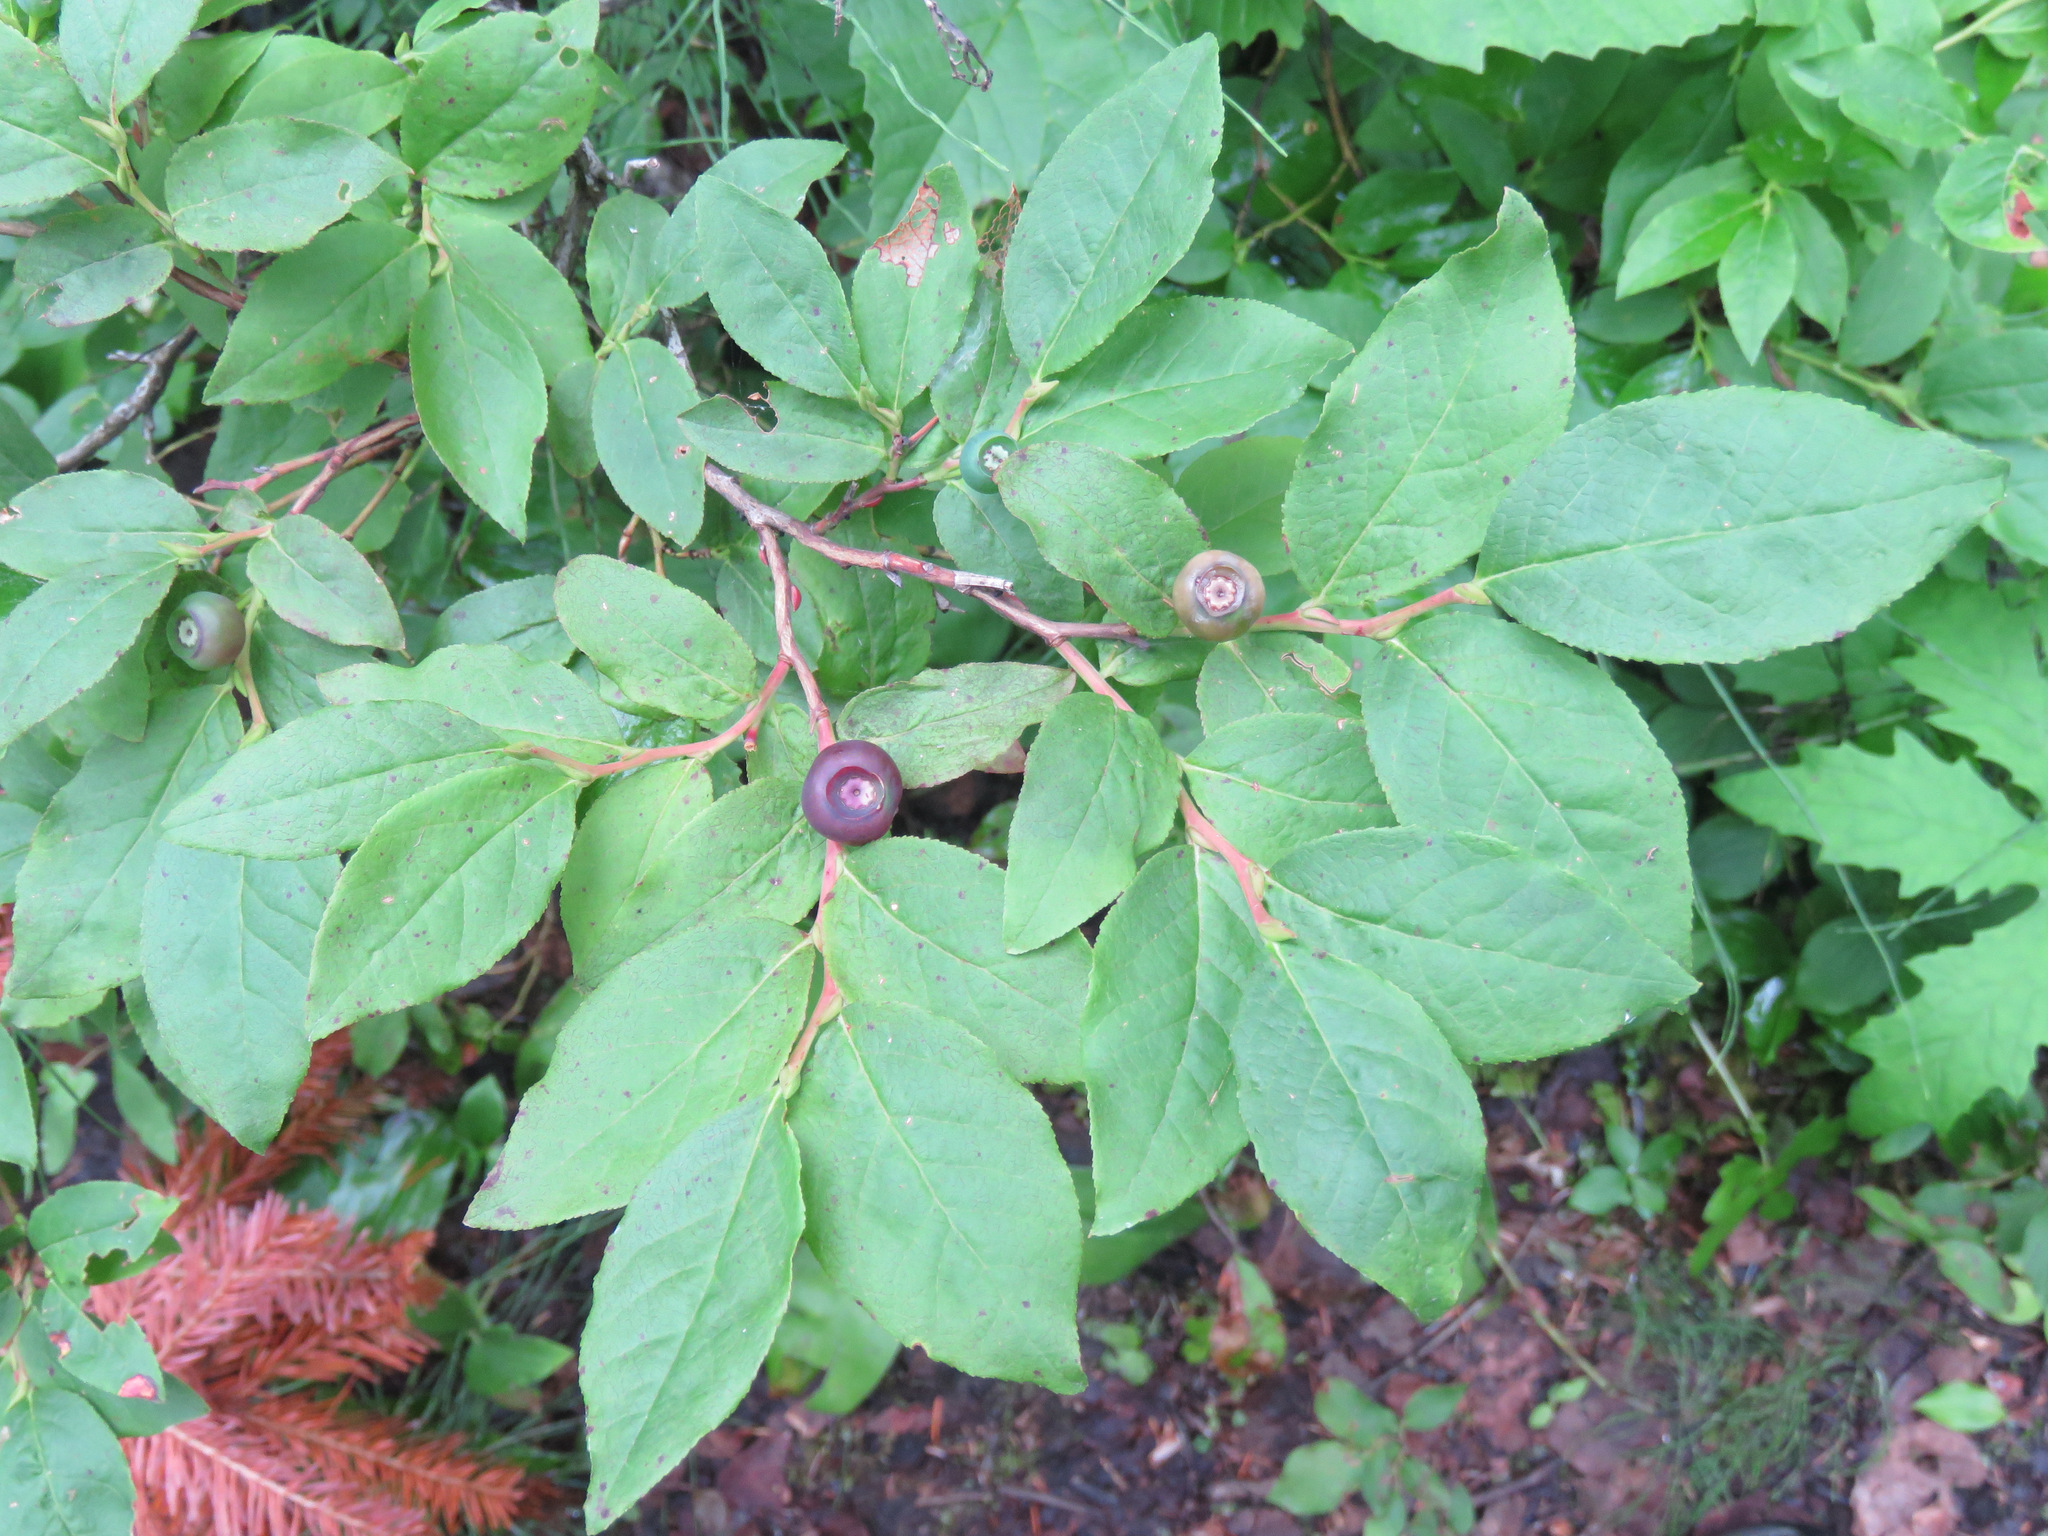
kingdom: Plantae
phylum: Tracheophyta
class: Magnoliopsida
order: Ericales
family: Ericaceae
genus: Vaccinium
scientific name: Vaccinium membranaceum
